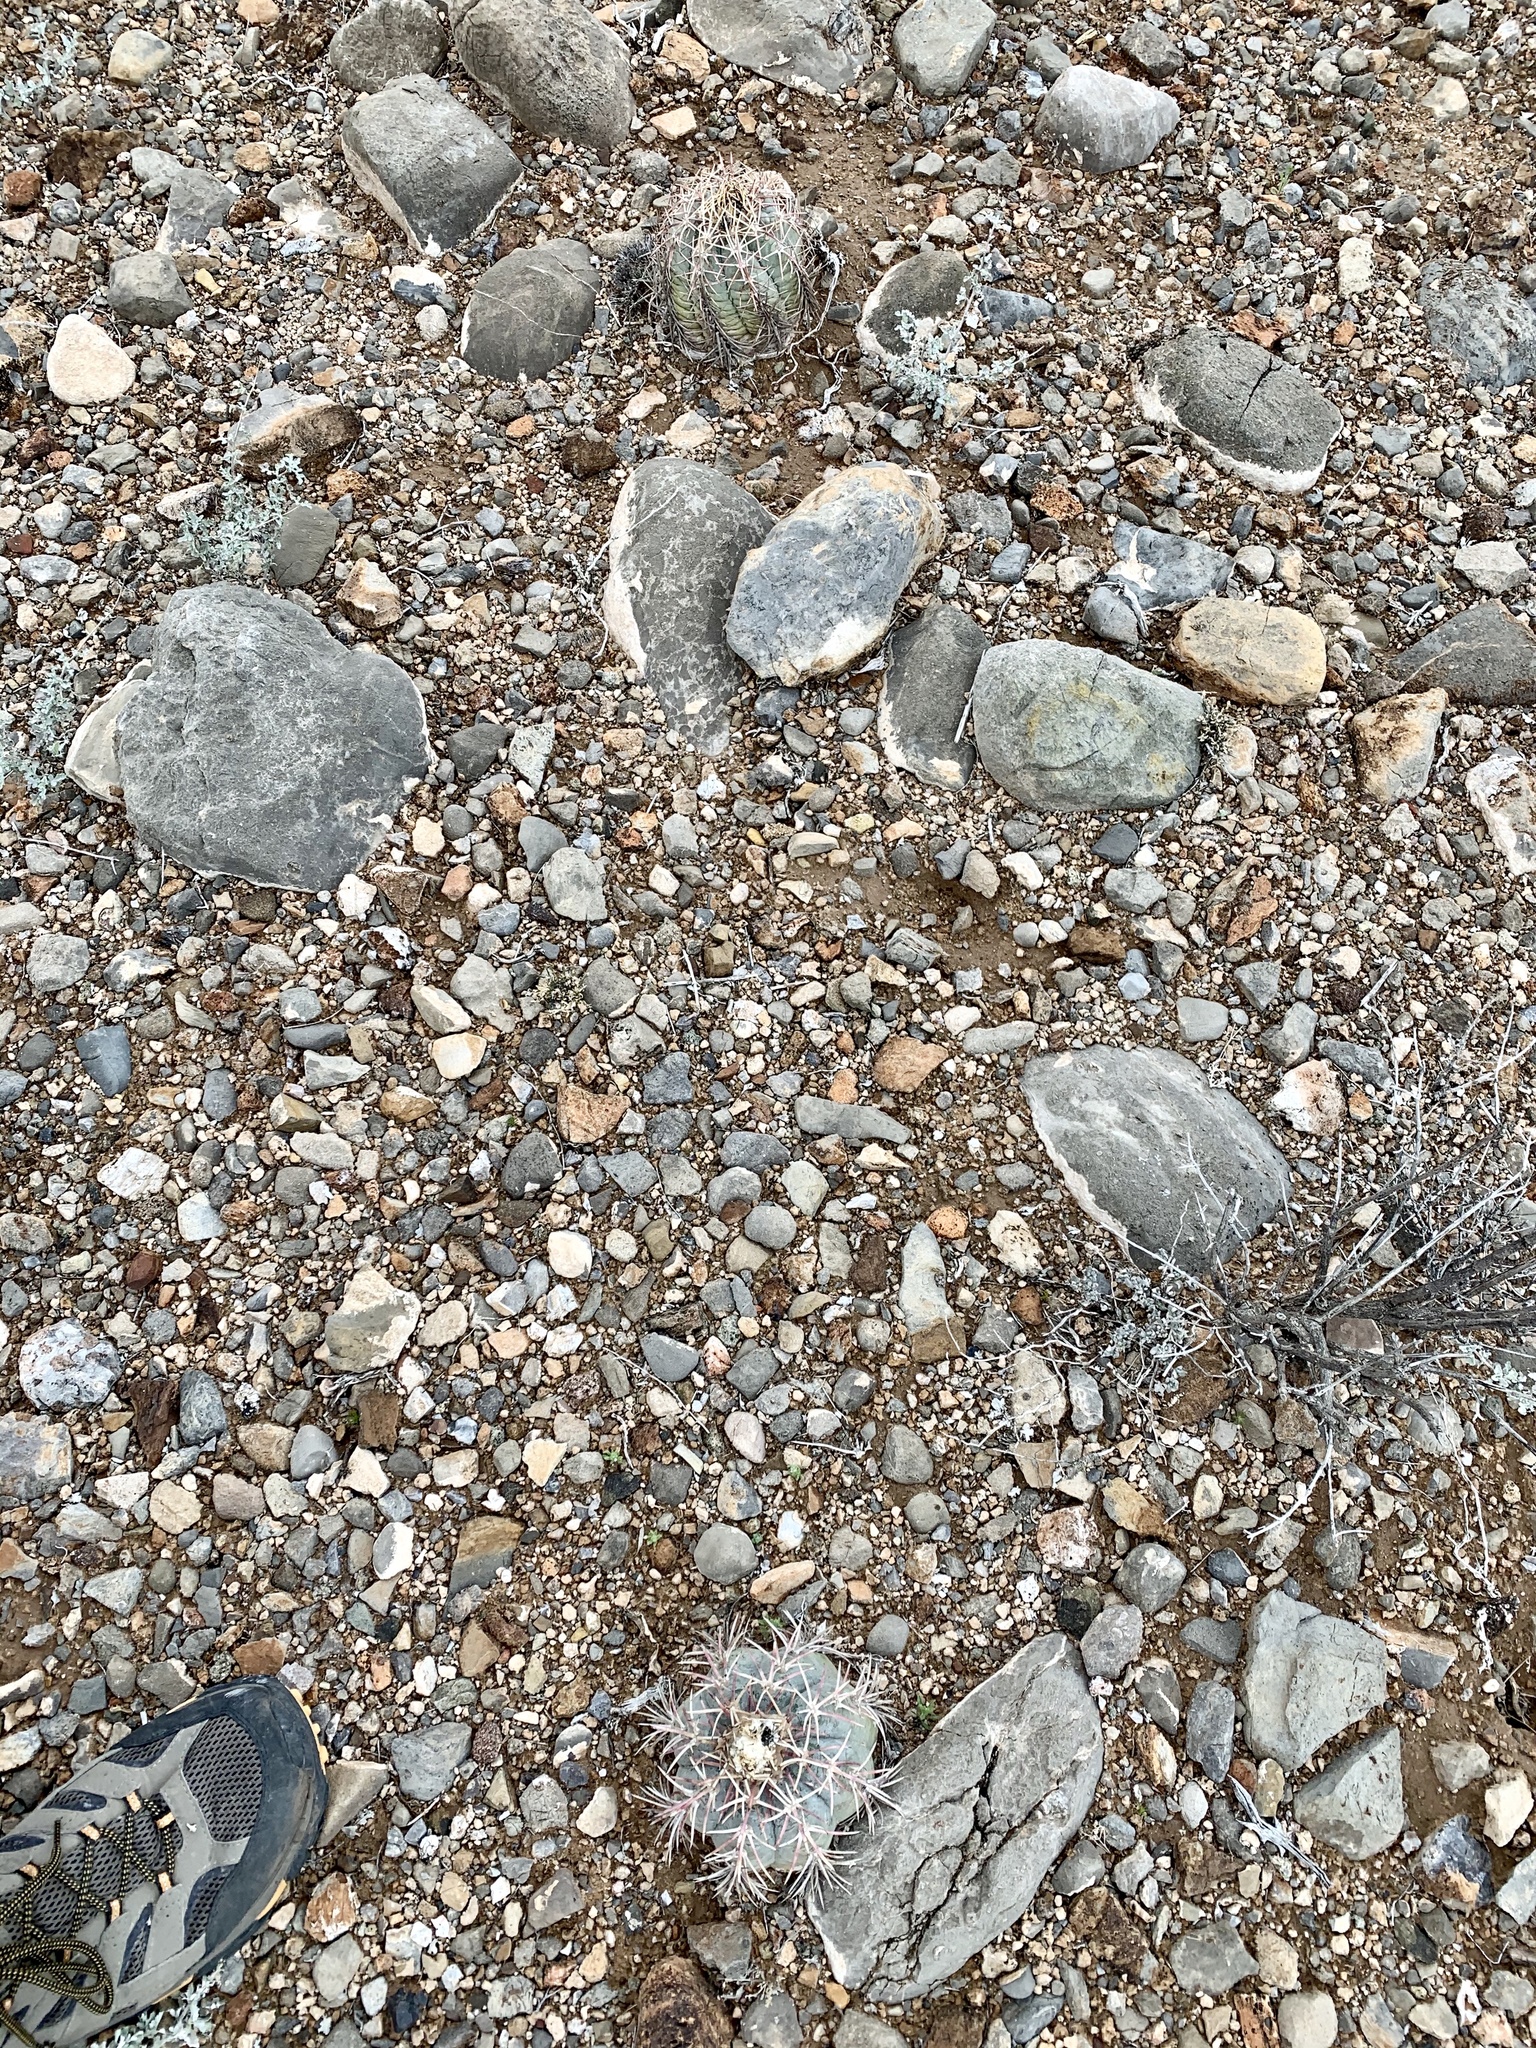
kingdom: Plantae
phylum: Tracheophyta
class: Magnoliopsida
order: Caryophyllales
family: Cactaceae
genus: Echinocactus
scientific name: Echinocactus horizonthalonius
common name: Devilshead
